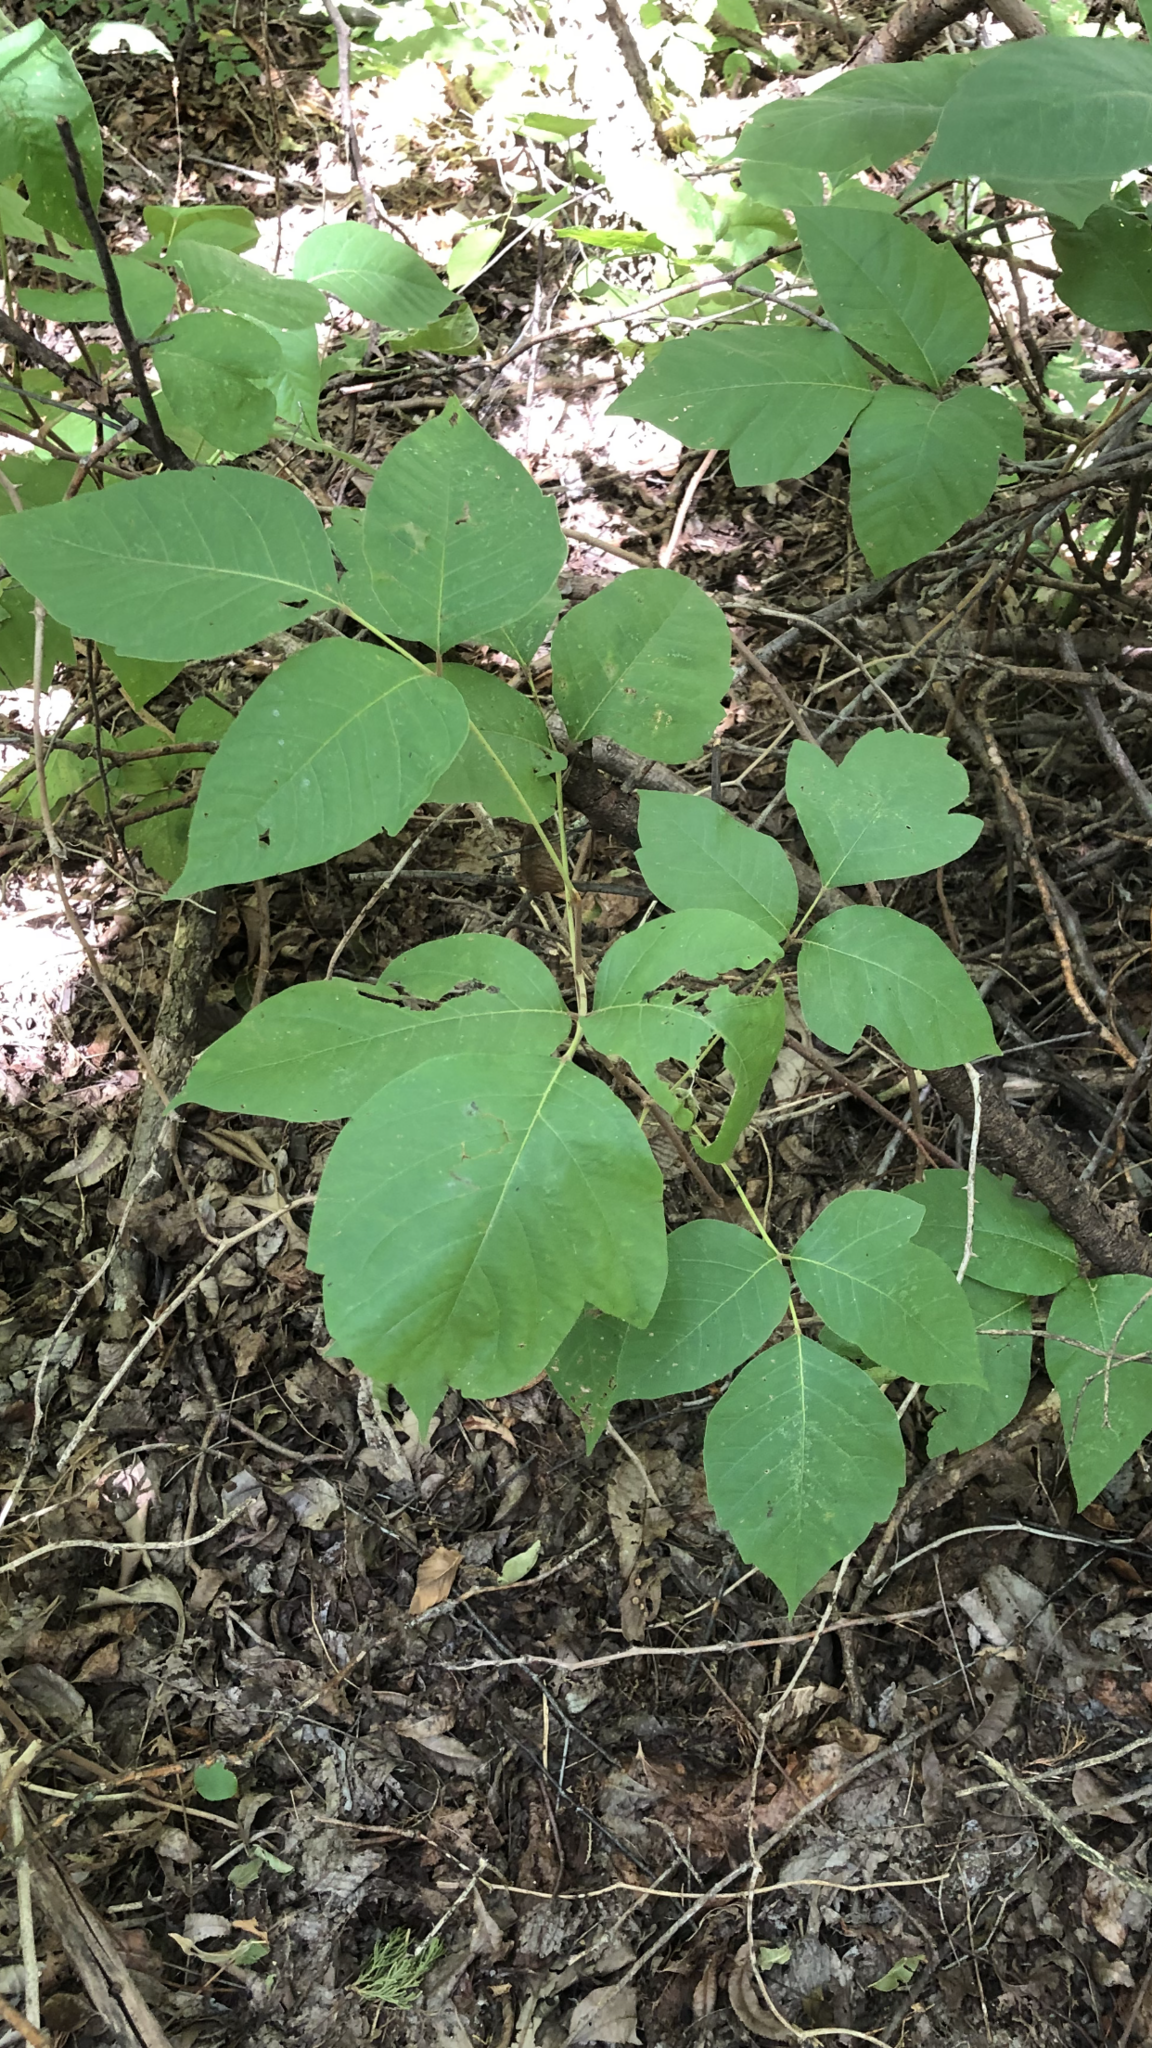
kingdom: Plantae
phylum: Tracheophyta
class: Magnoliopsida
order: Sapindales
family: Anacardiaceae
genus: Toxicodendron
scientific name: Toxicodendron radicans
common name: Poison ivy
